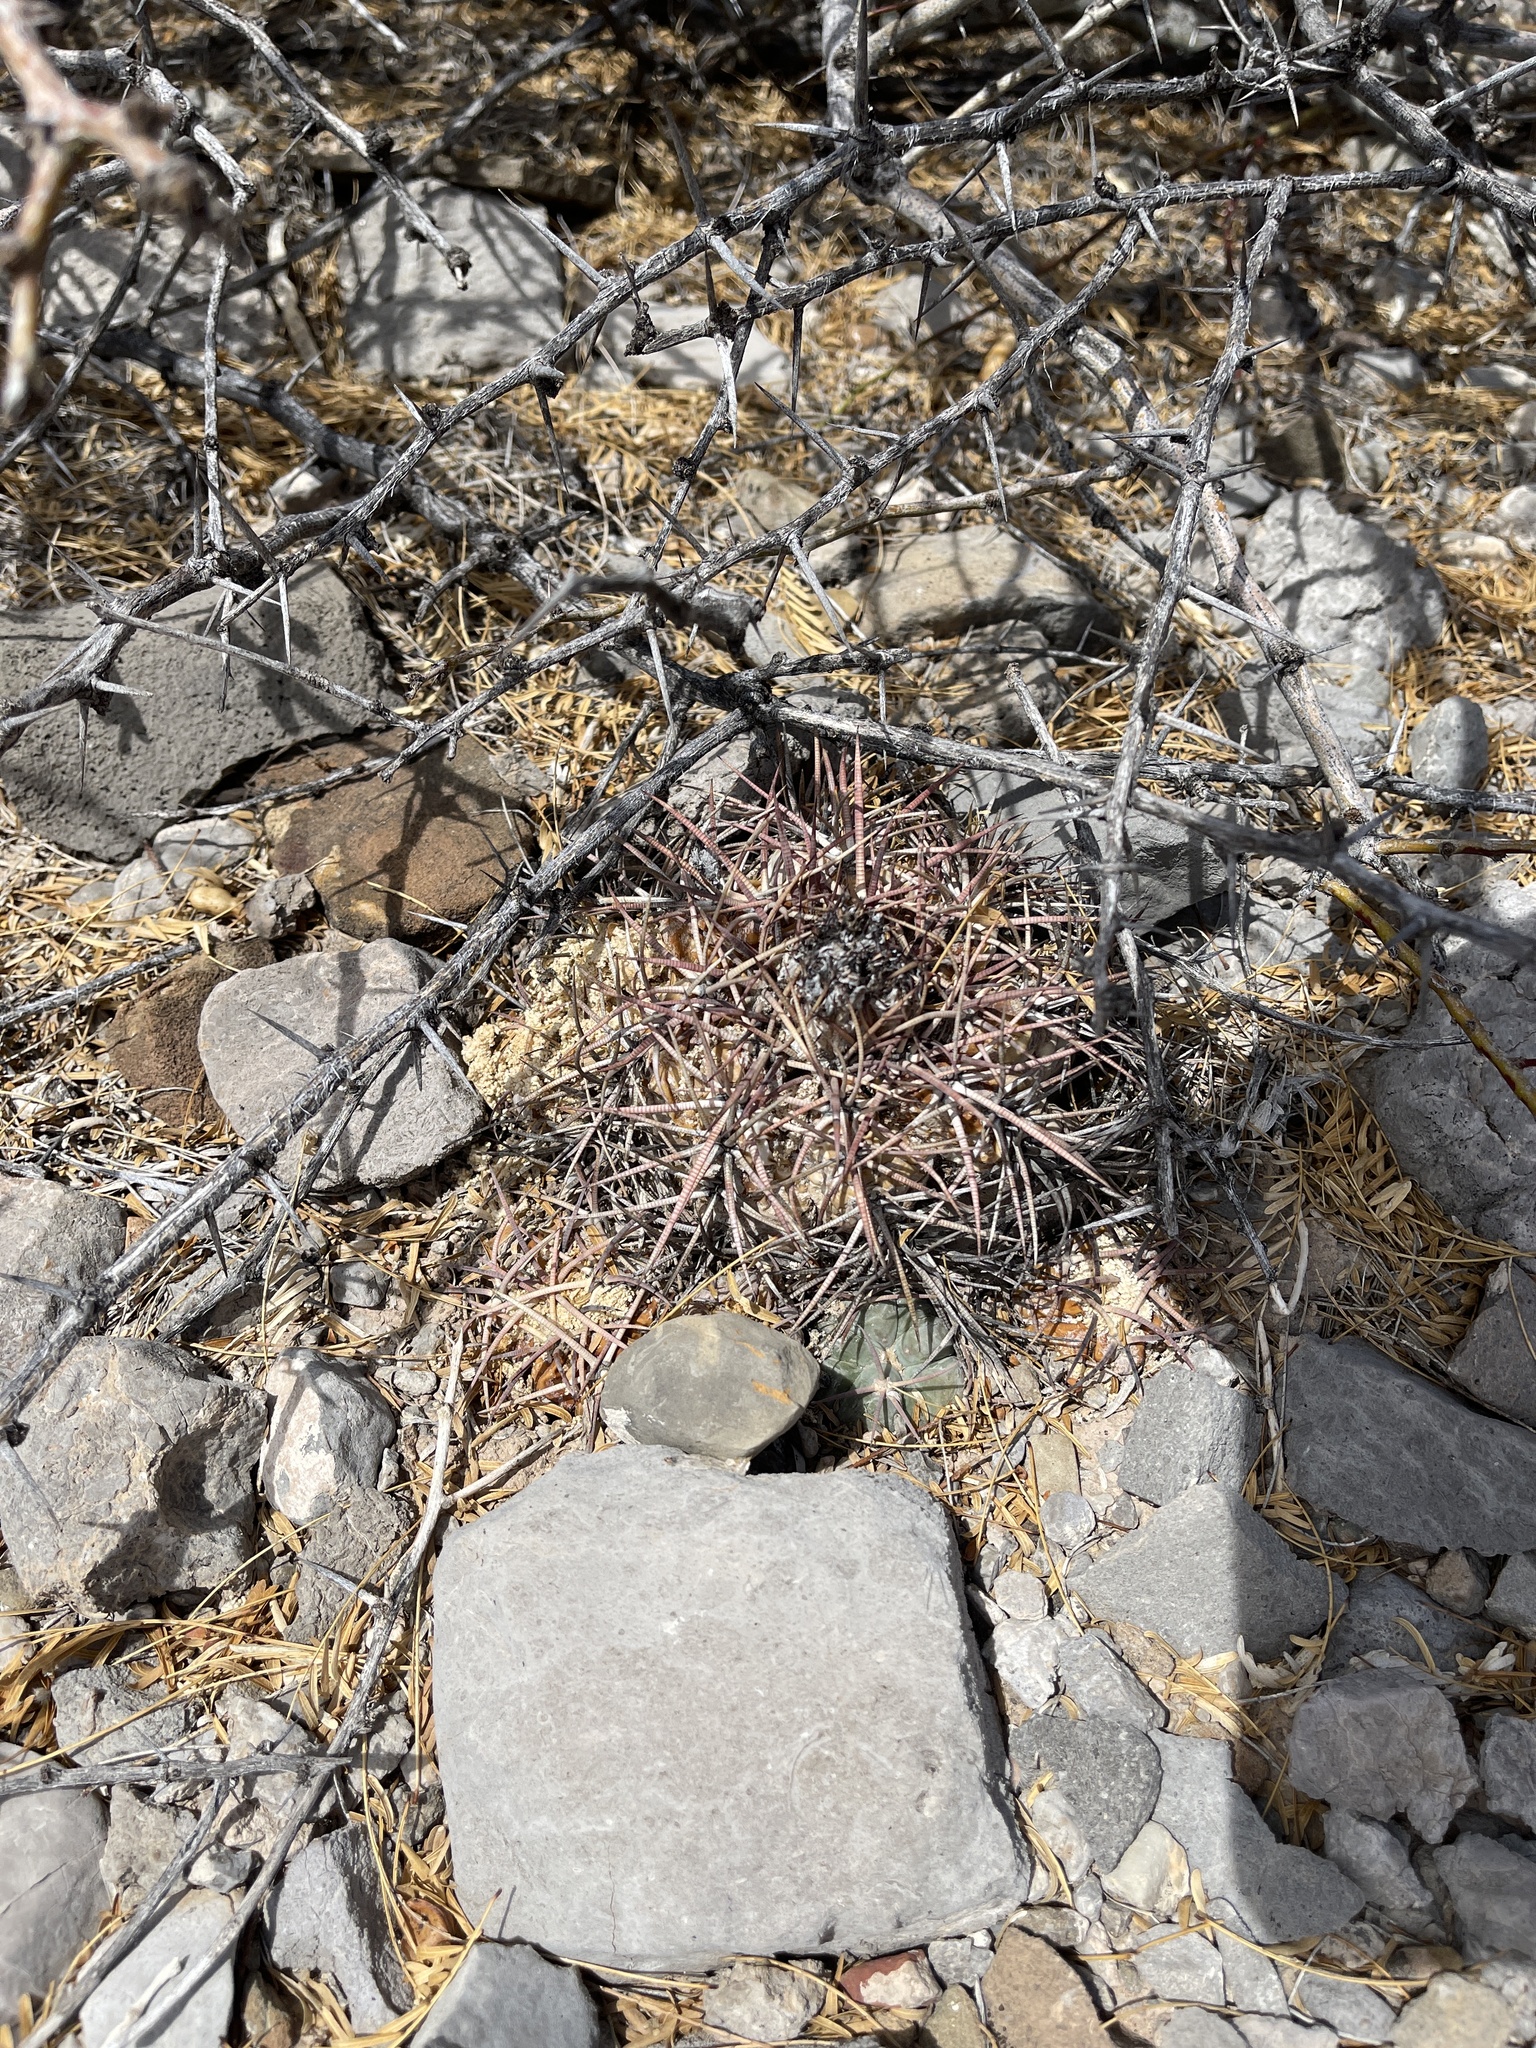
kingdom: Plantae
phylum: Tracheophyta
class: Magnoliopsida
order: Caryophyllales
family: Cactaceae
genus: Echinocactus
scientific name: Echinocactus horizonthalonius
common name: Devilshead
